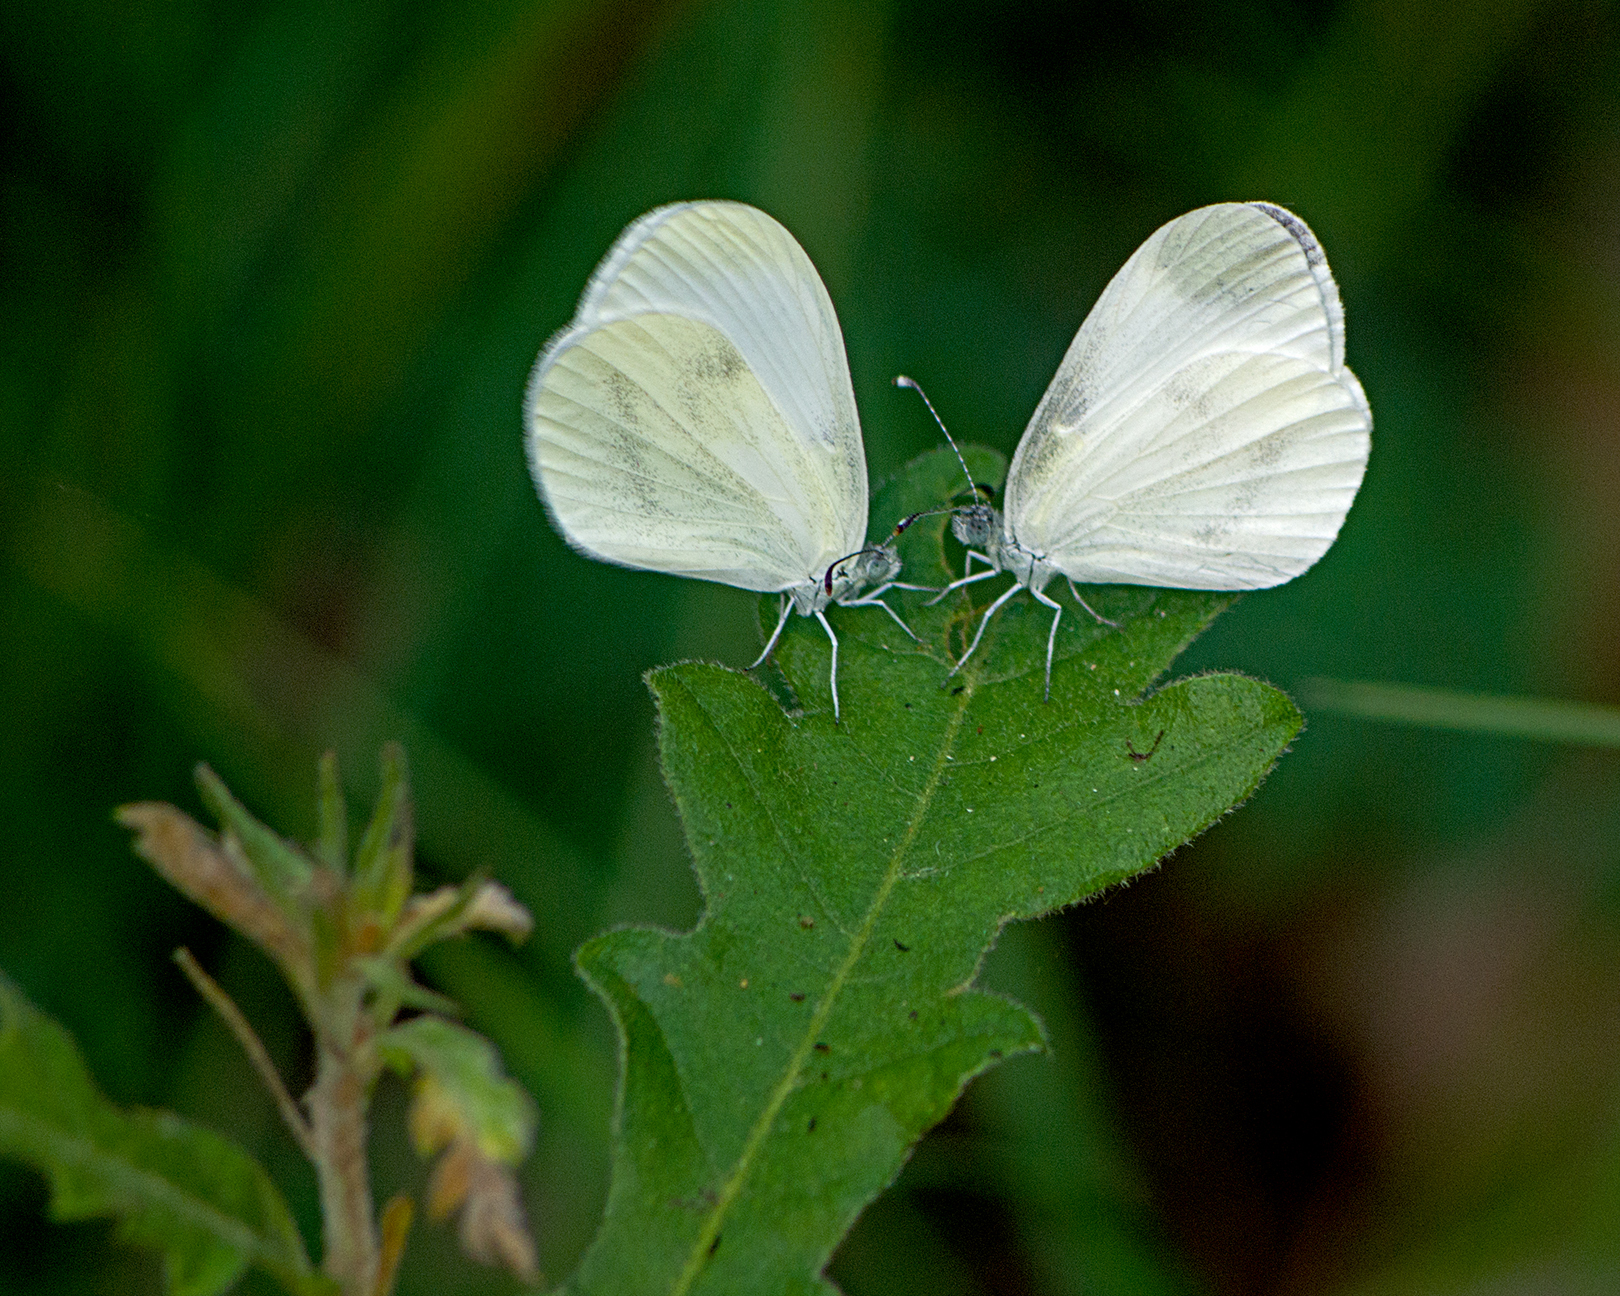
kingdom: Animalia
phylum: Arthropoda
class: Insecta
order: Lepidoptera
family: Pieridae
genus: Leptidea
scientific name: Leptidea
